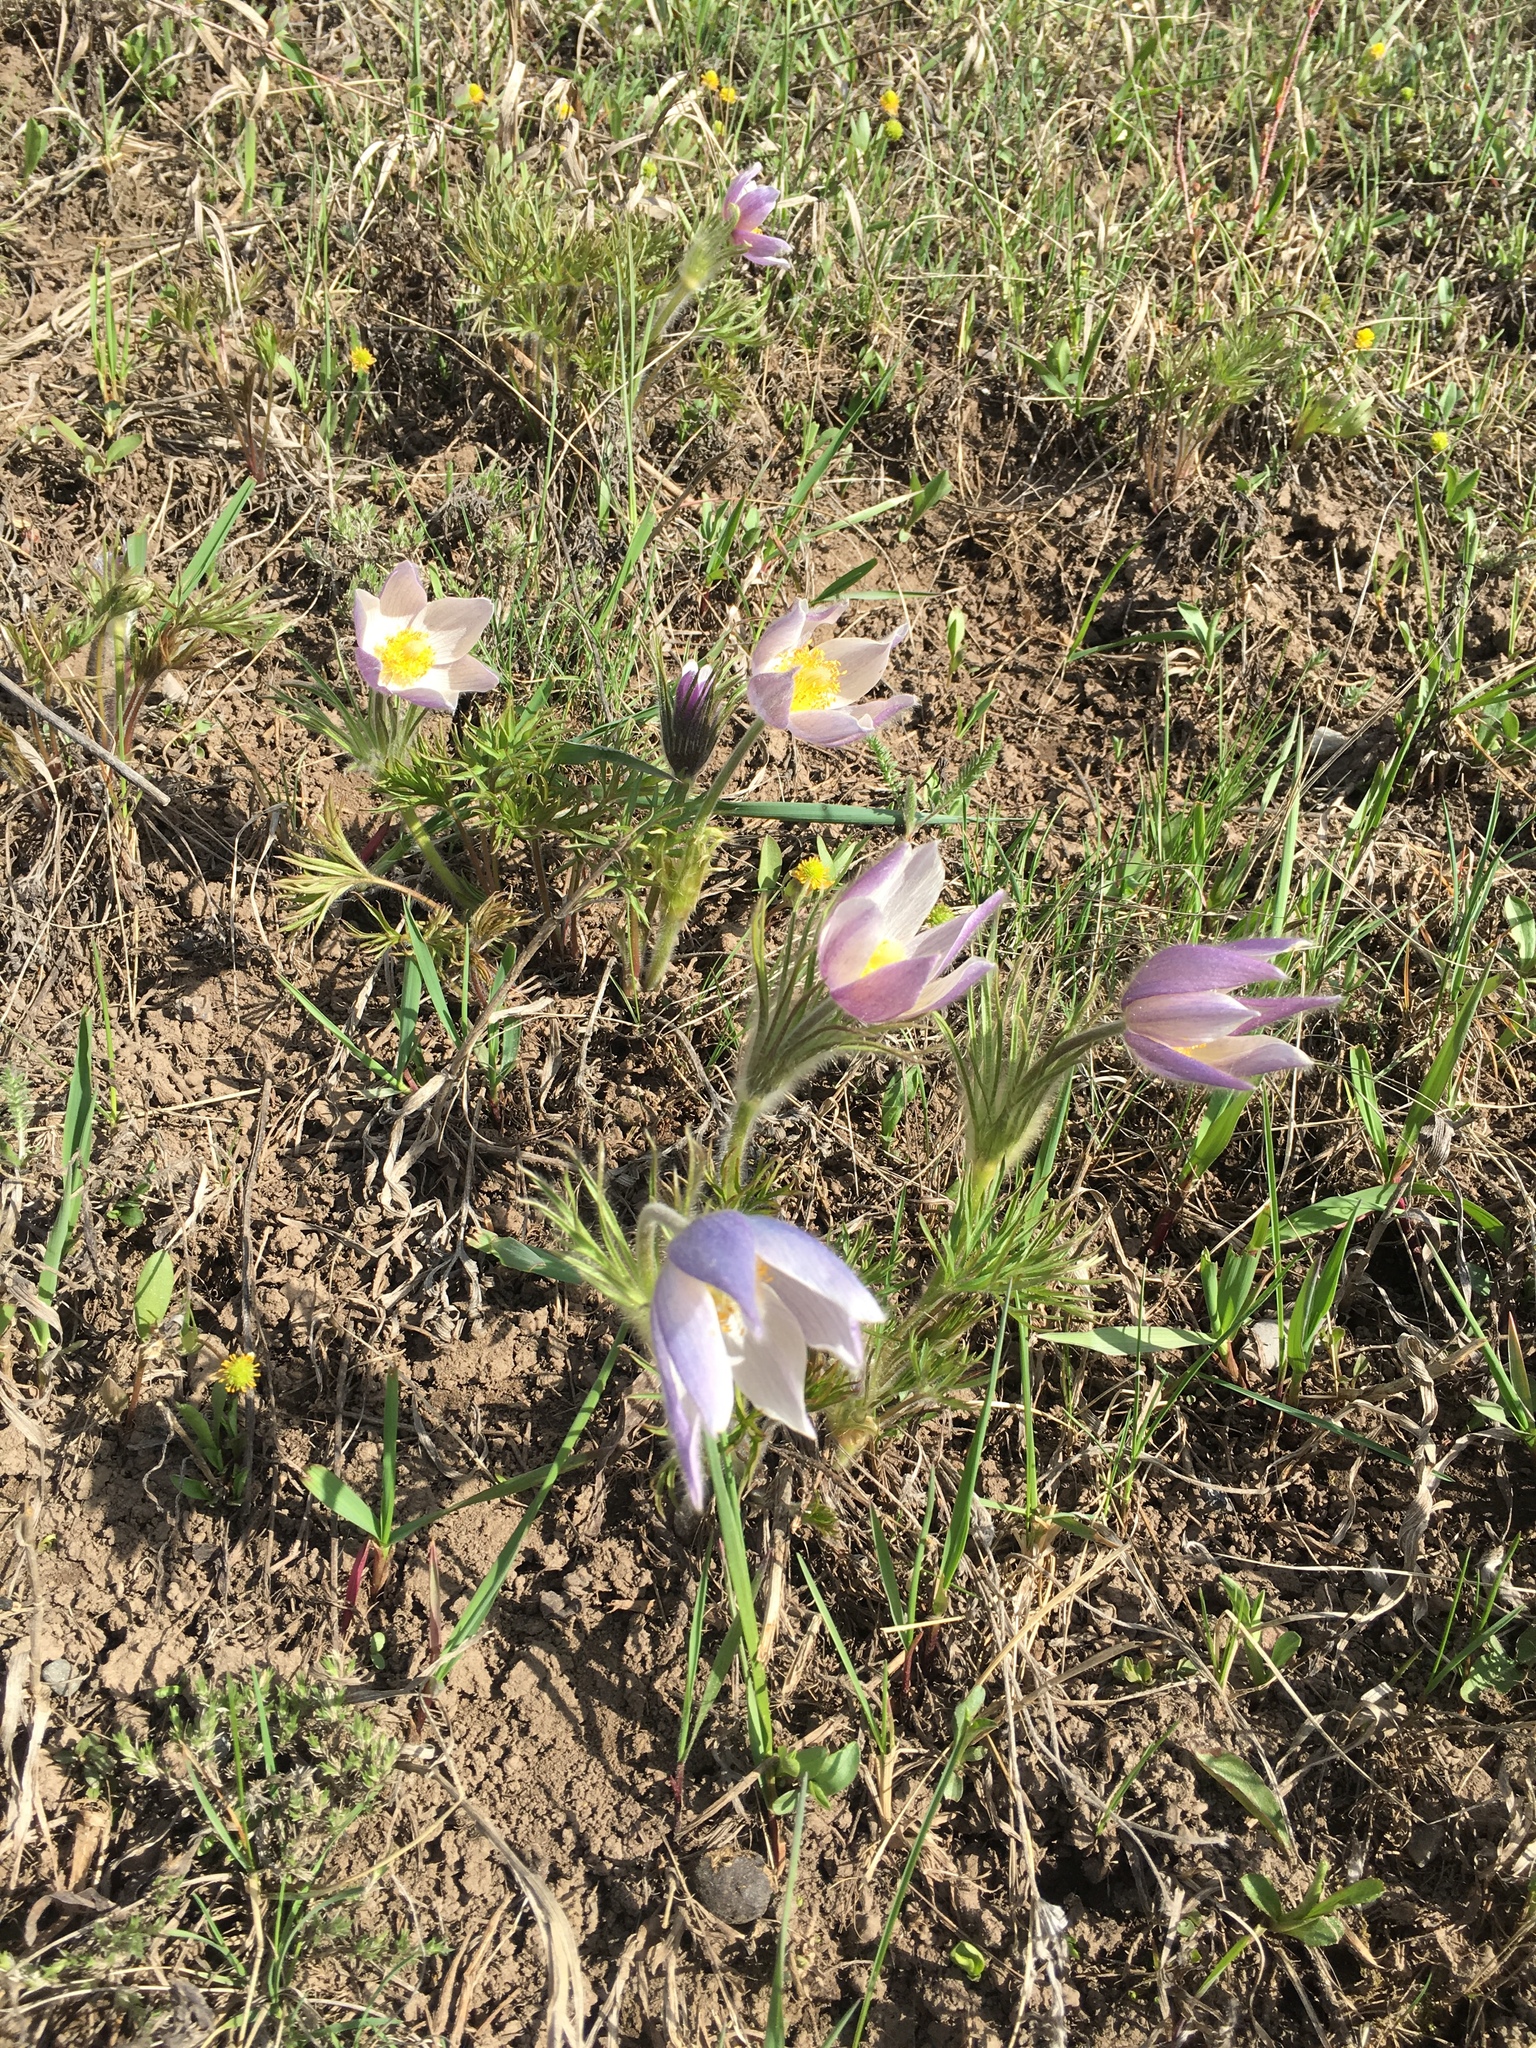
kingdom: Plantae
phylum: Tracheophyta
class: Magnoliopsida
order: Ranunculales
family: Ranunculaceae
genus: Pulsatilla
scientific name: Pulsatilla nuttalliana
